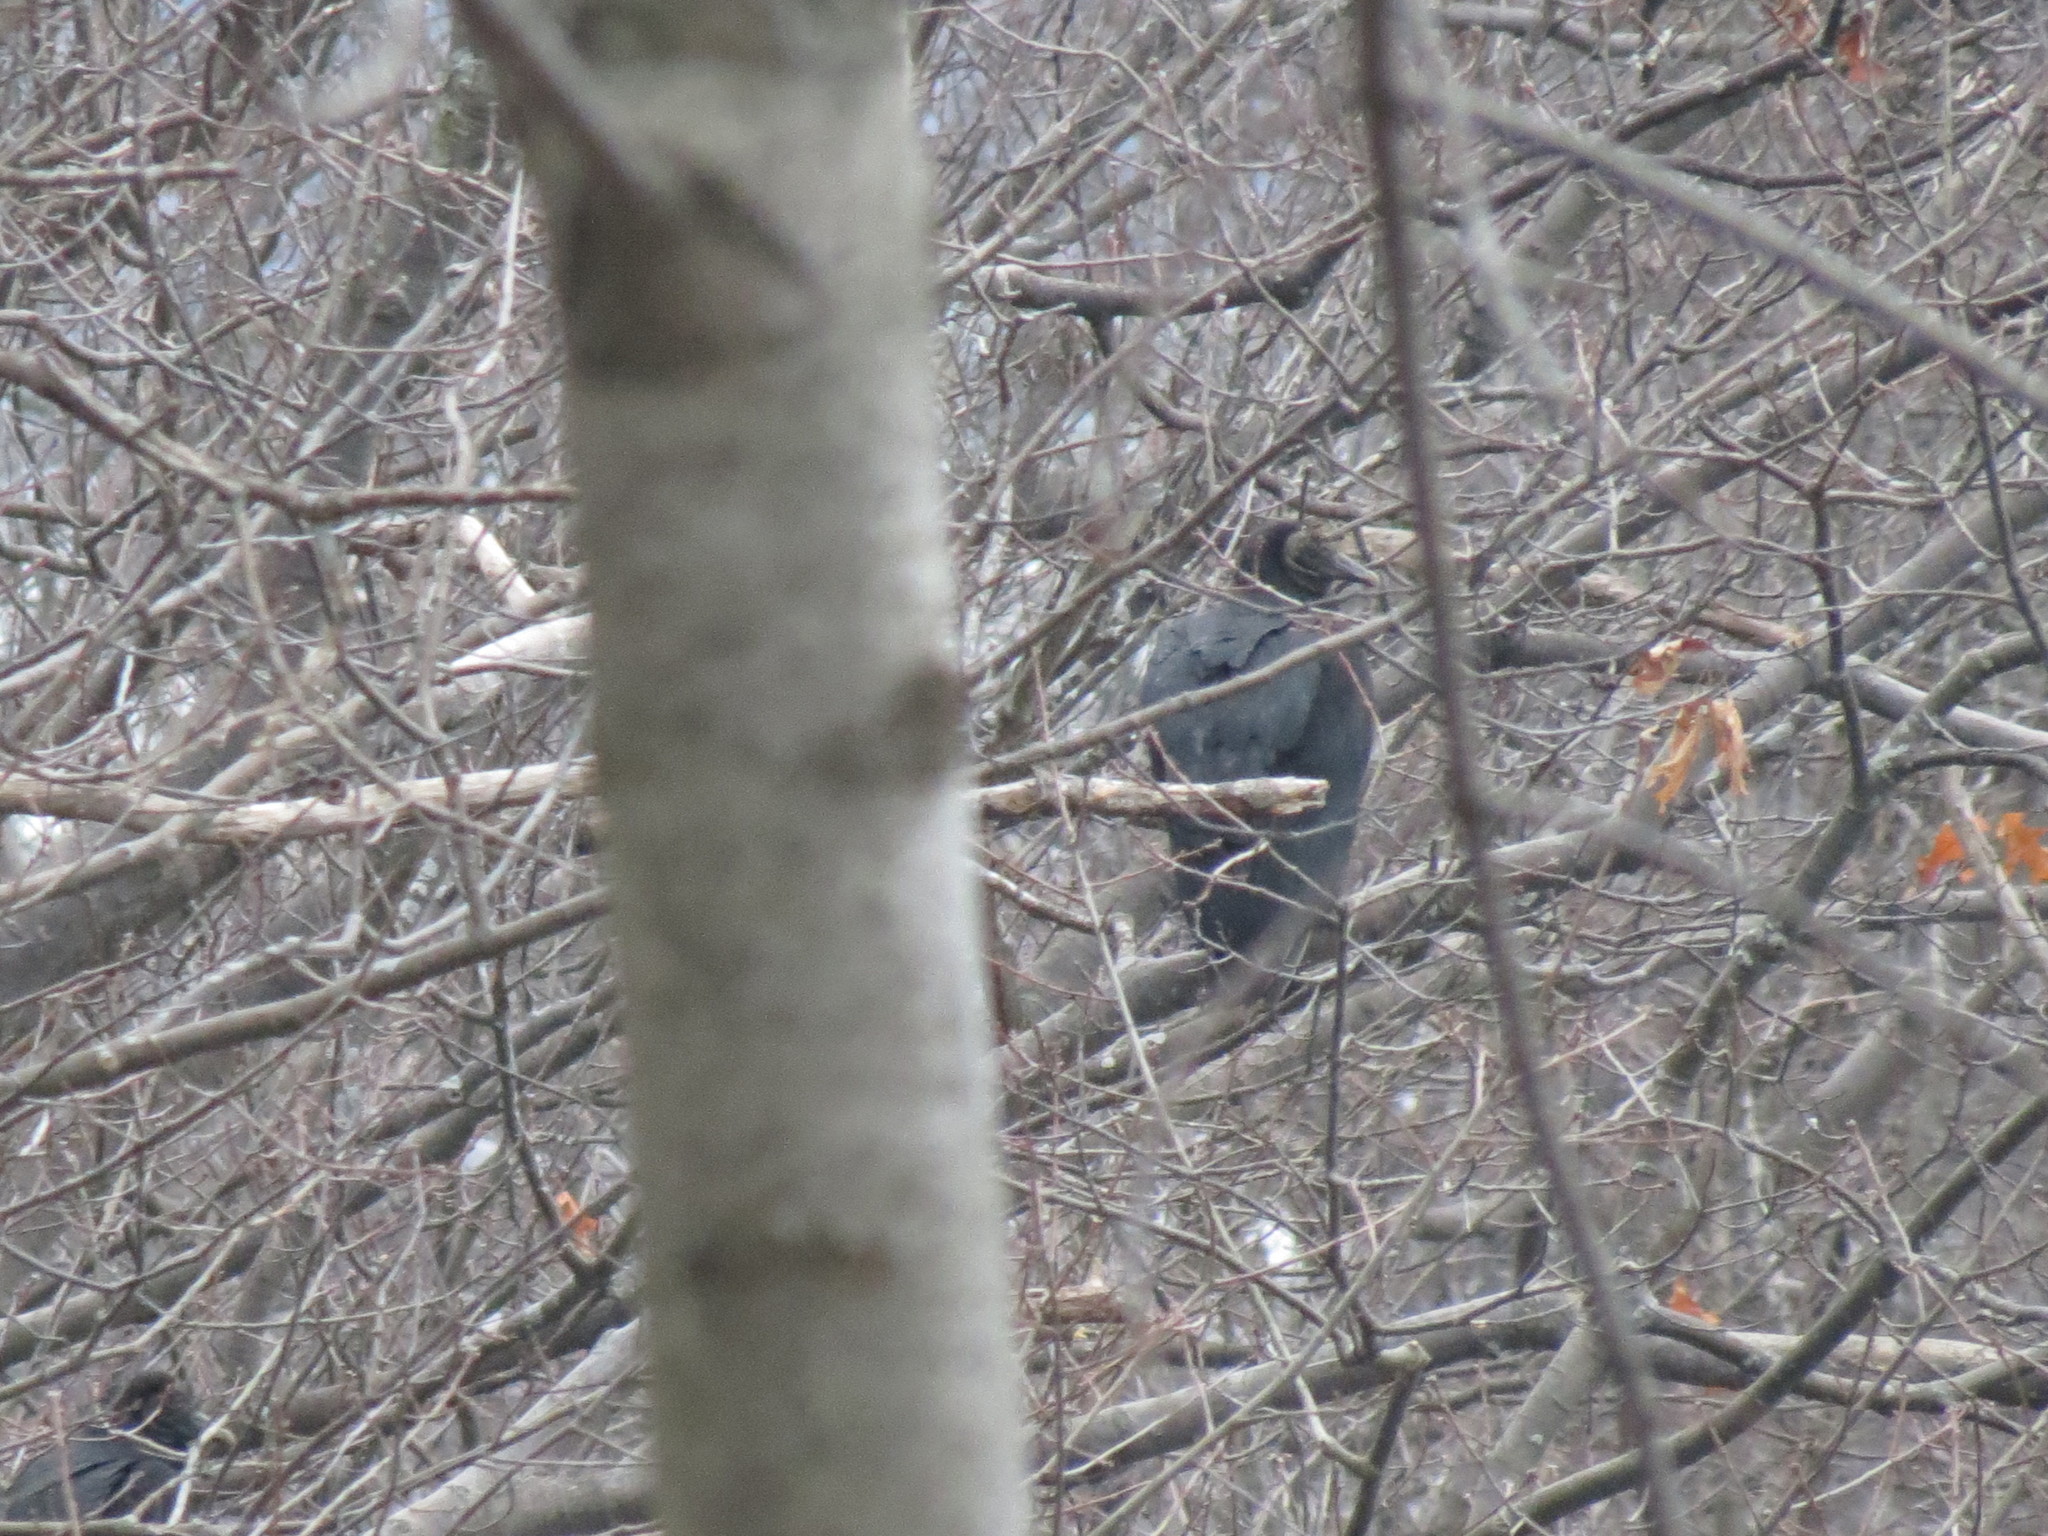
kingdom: Animalia
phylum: Chordata
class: Aves
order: Accipitriformes
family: Cathartidae
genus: Coragyps
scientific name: Coragyps atratus
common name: Black vulture
